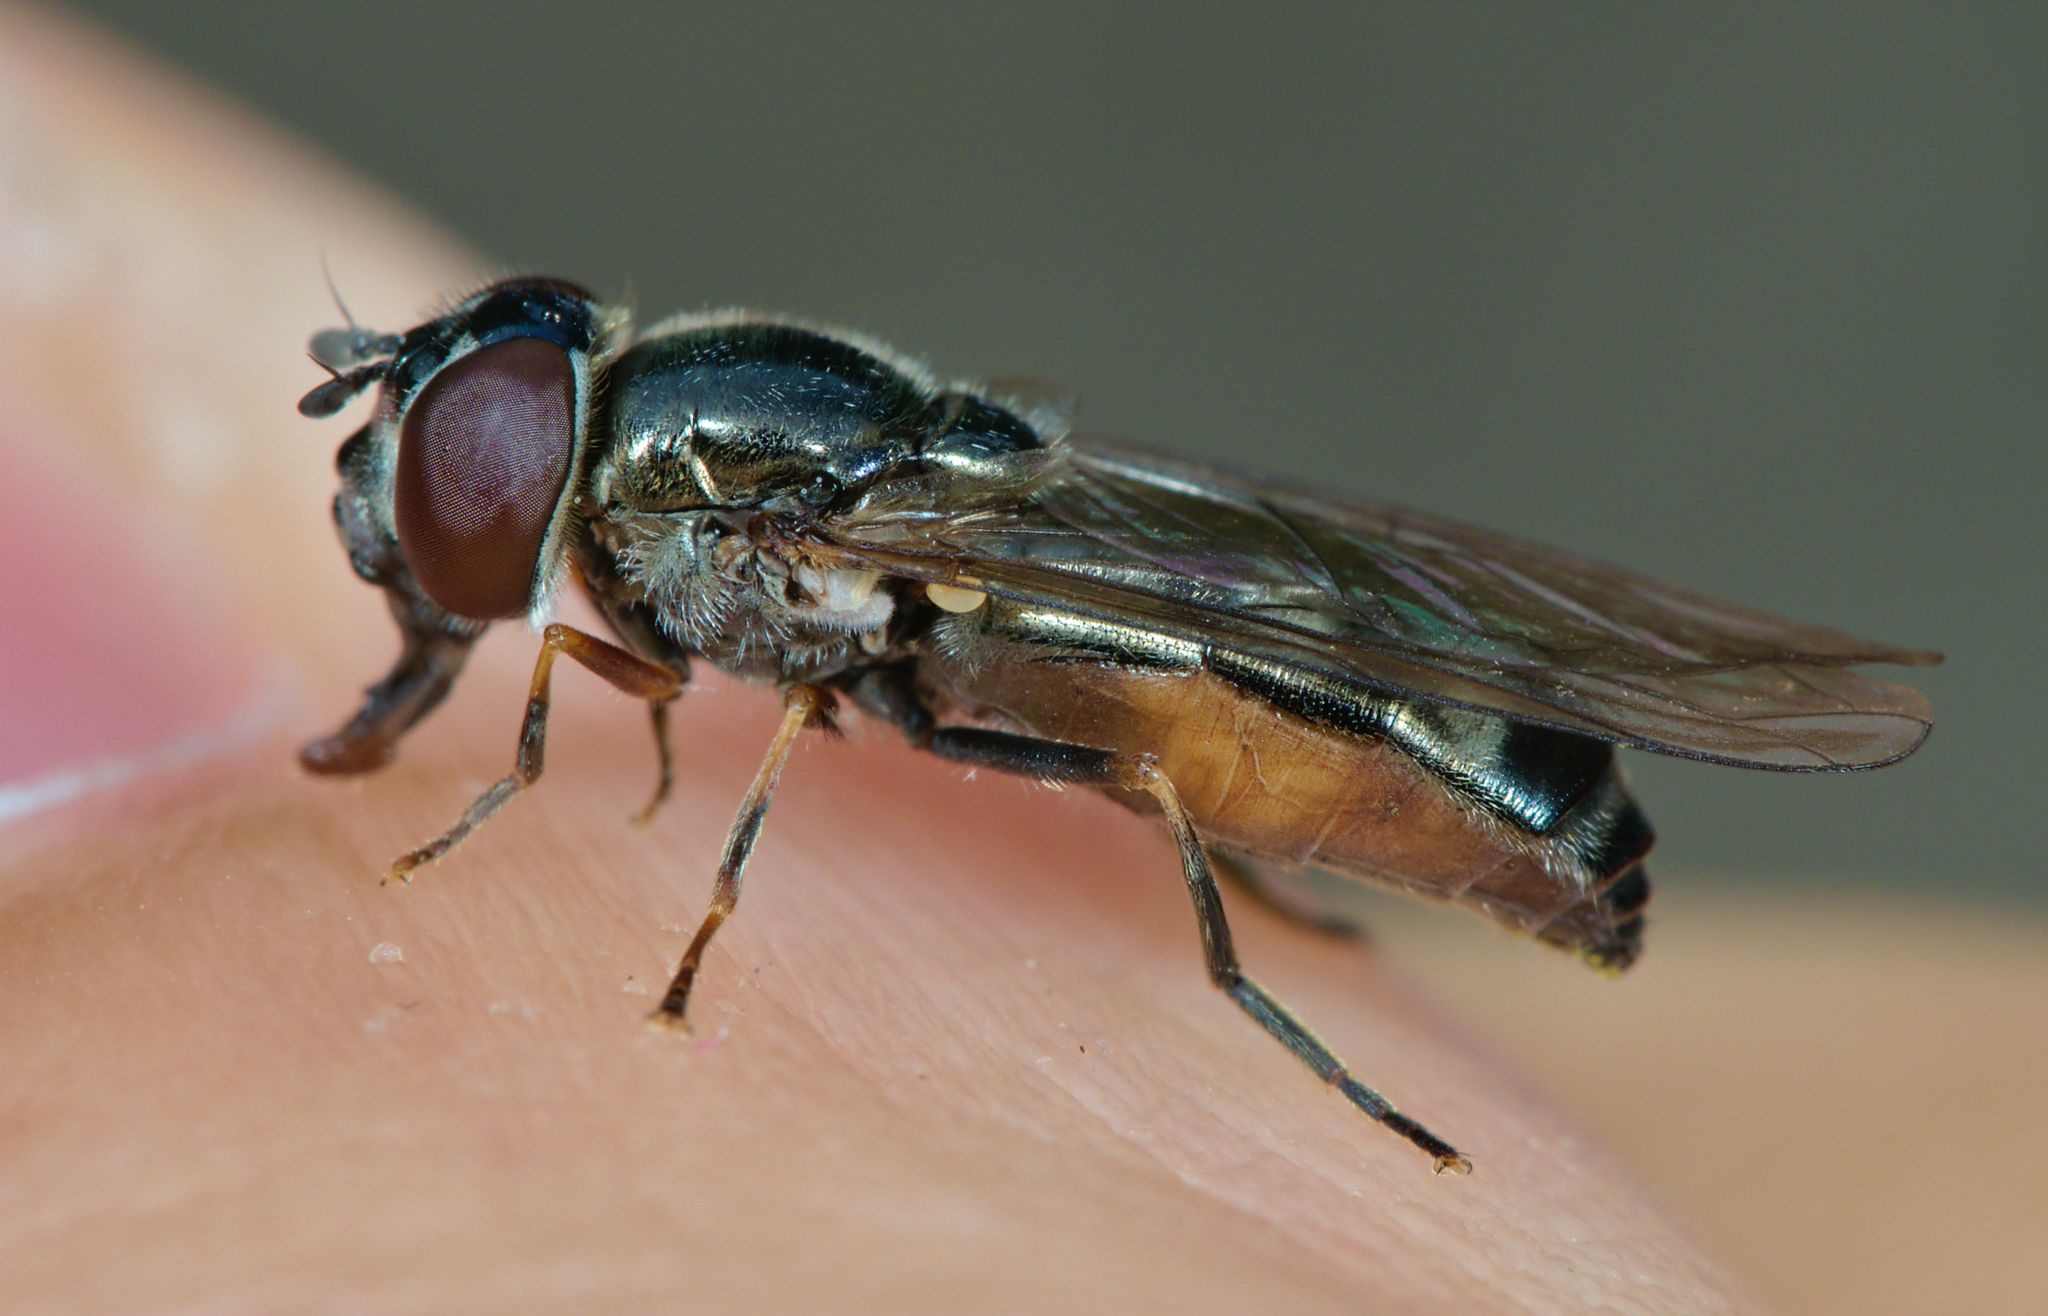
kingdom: Animalia
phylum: Arthropoda
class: Insecta
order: Diptera
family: Syrphidae
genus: Platycheirus
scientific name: Platycheirus albimanus
